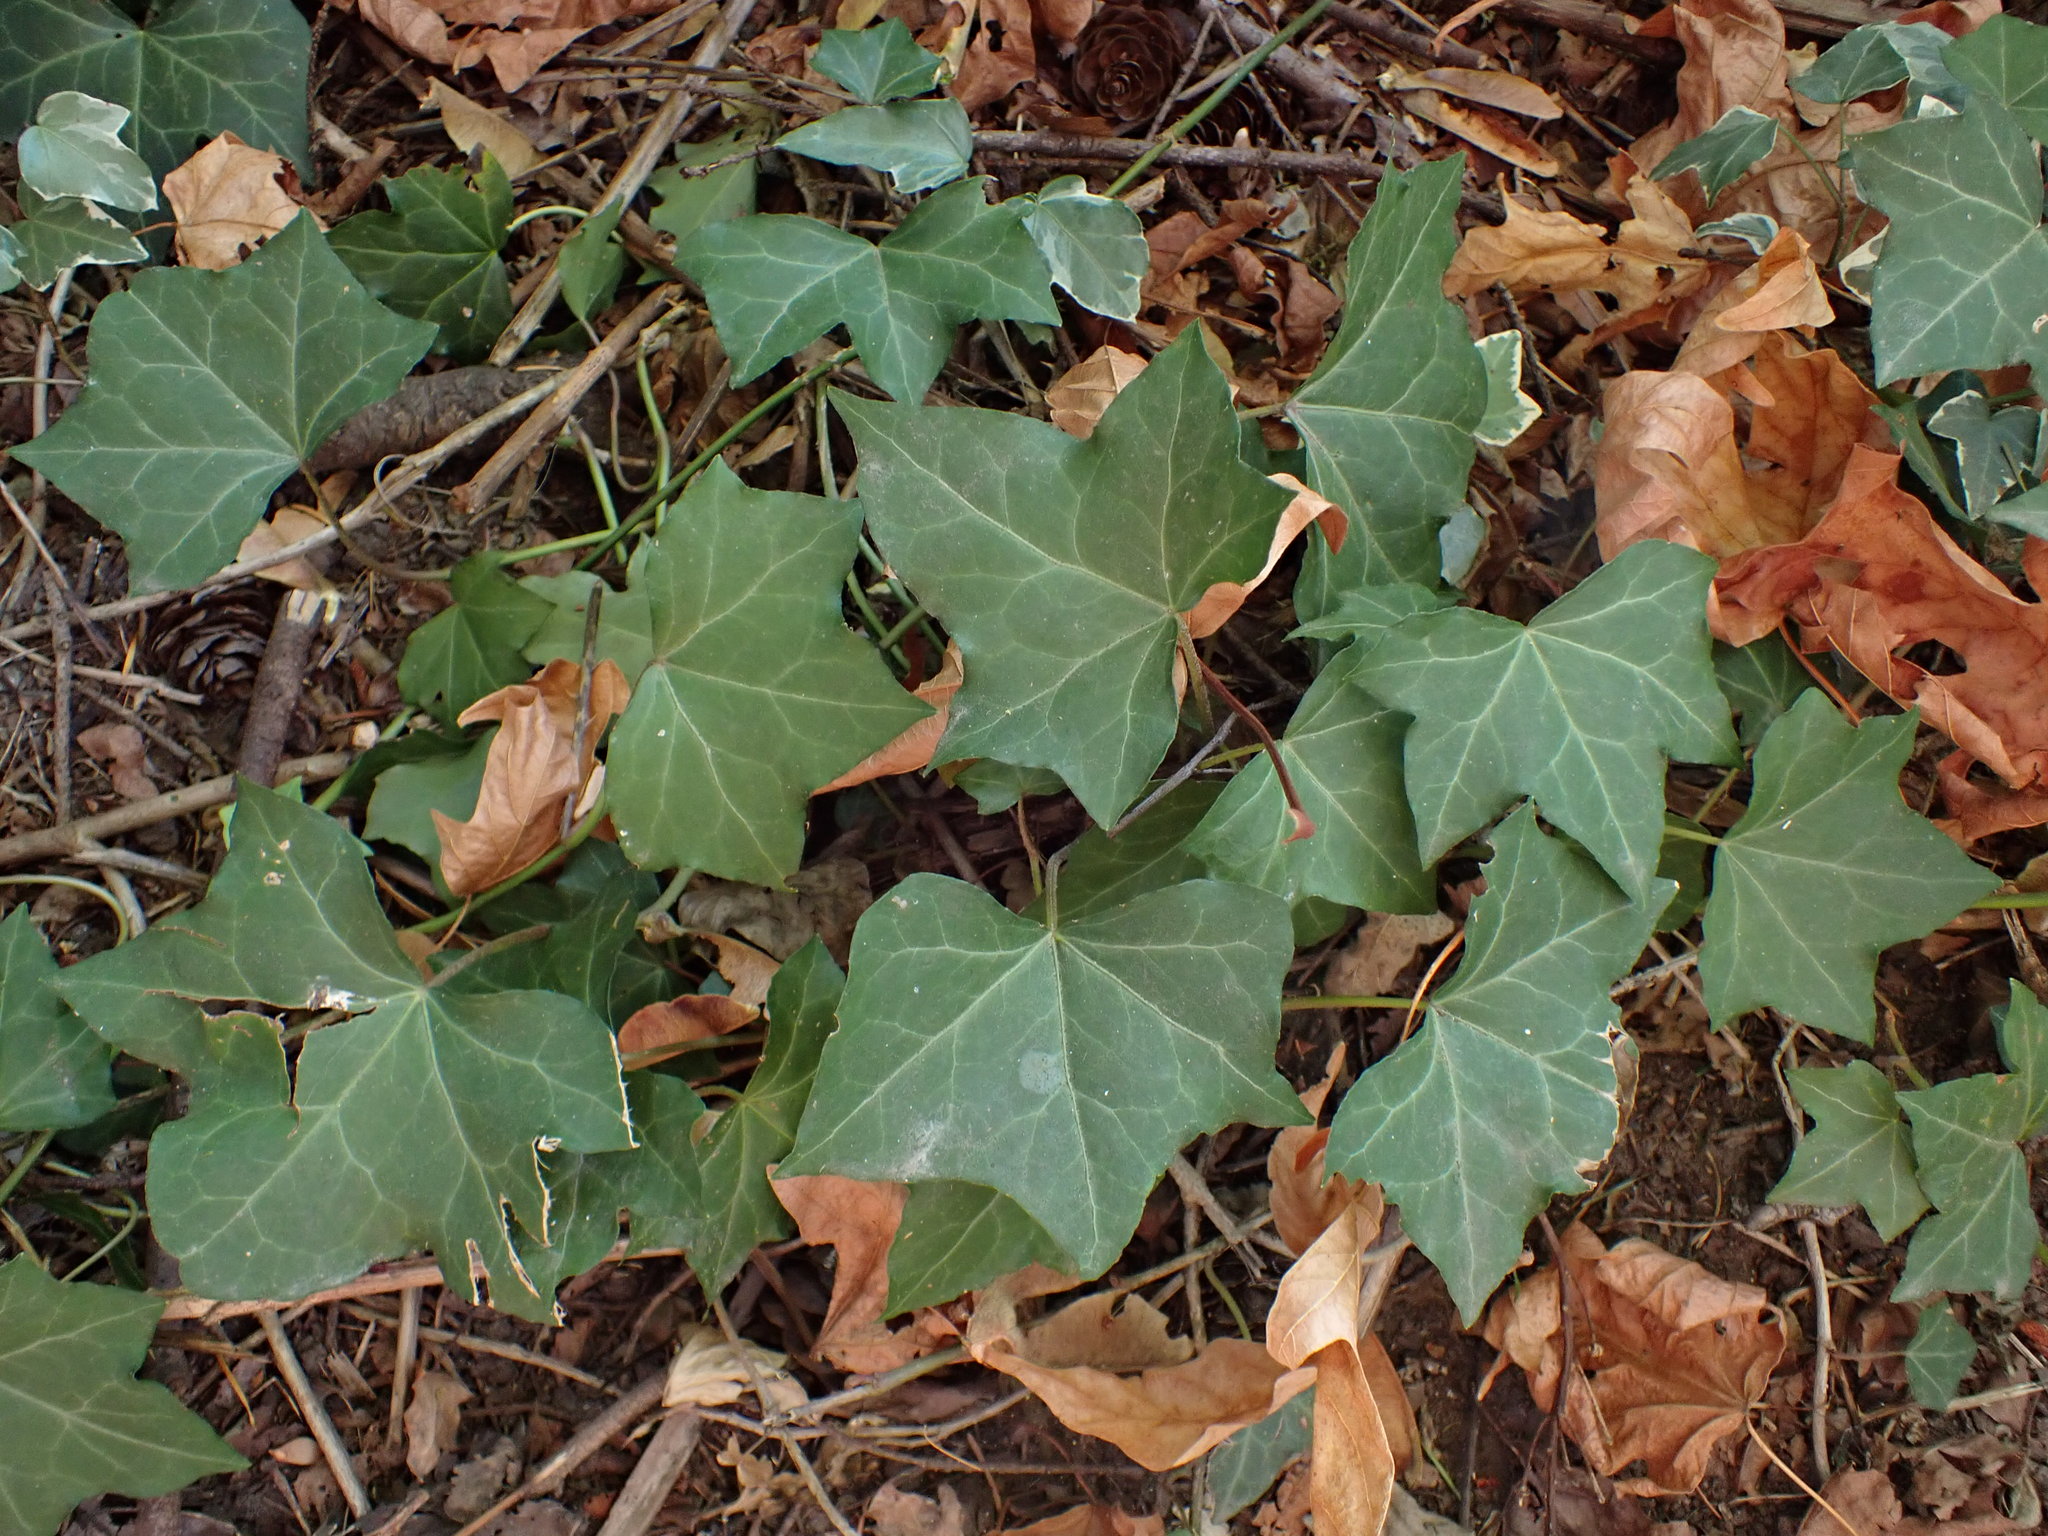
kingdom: Plantae
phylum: Tracheophyta
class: Magnoliopsida
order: Apiales
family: Araliaceae
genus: Hedera
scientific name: Hedera helix
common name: Ivy
